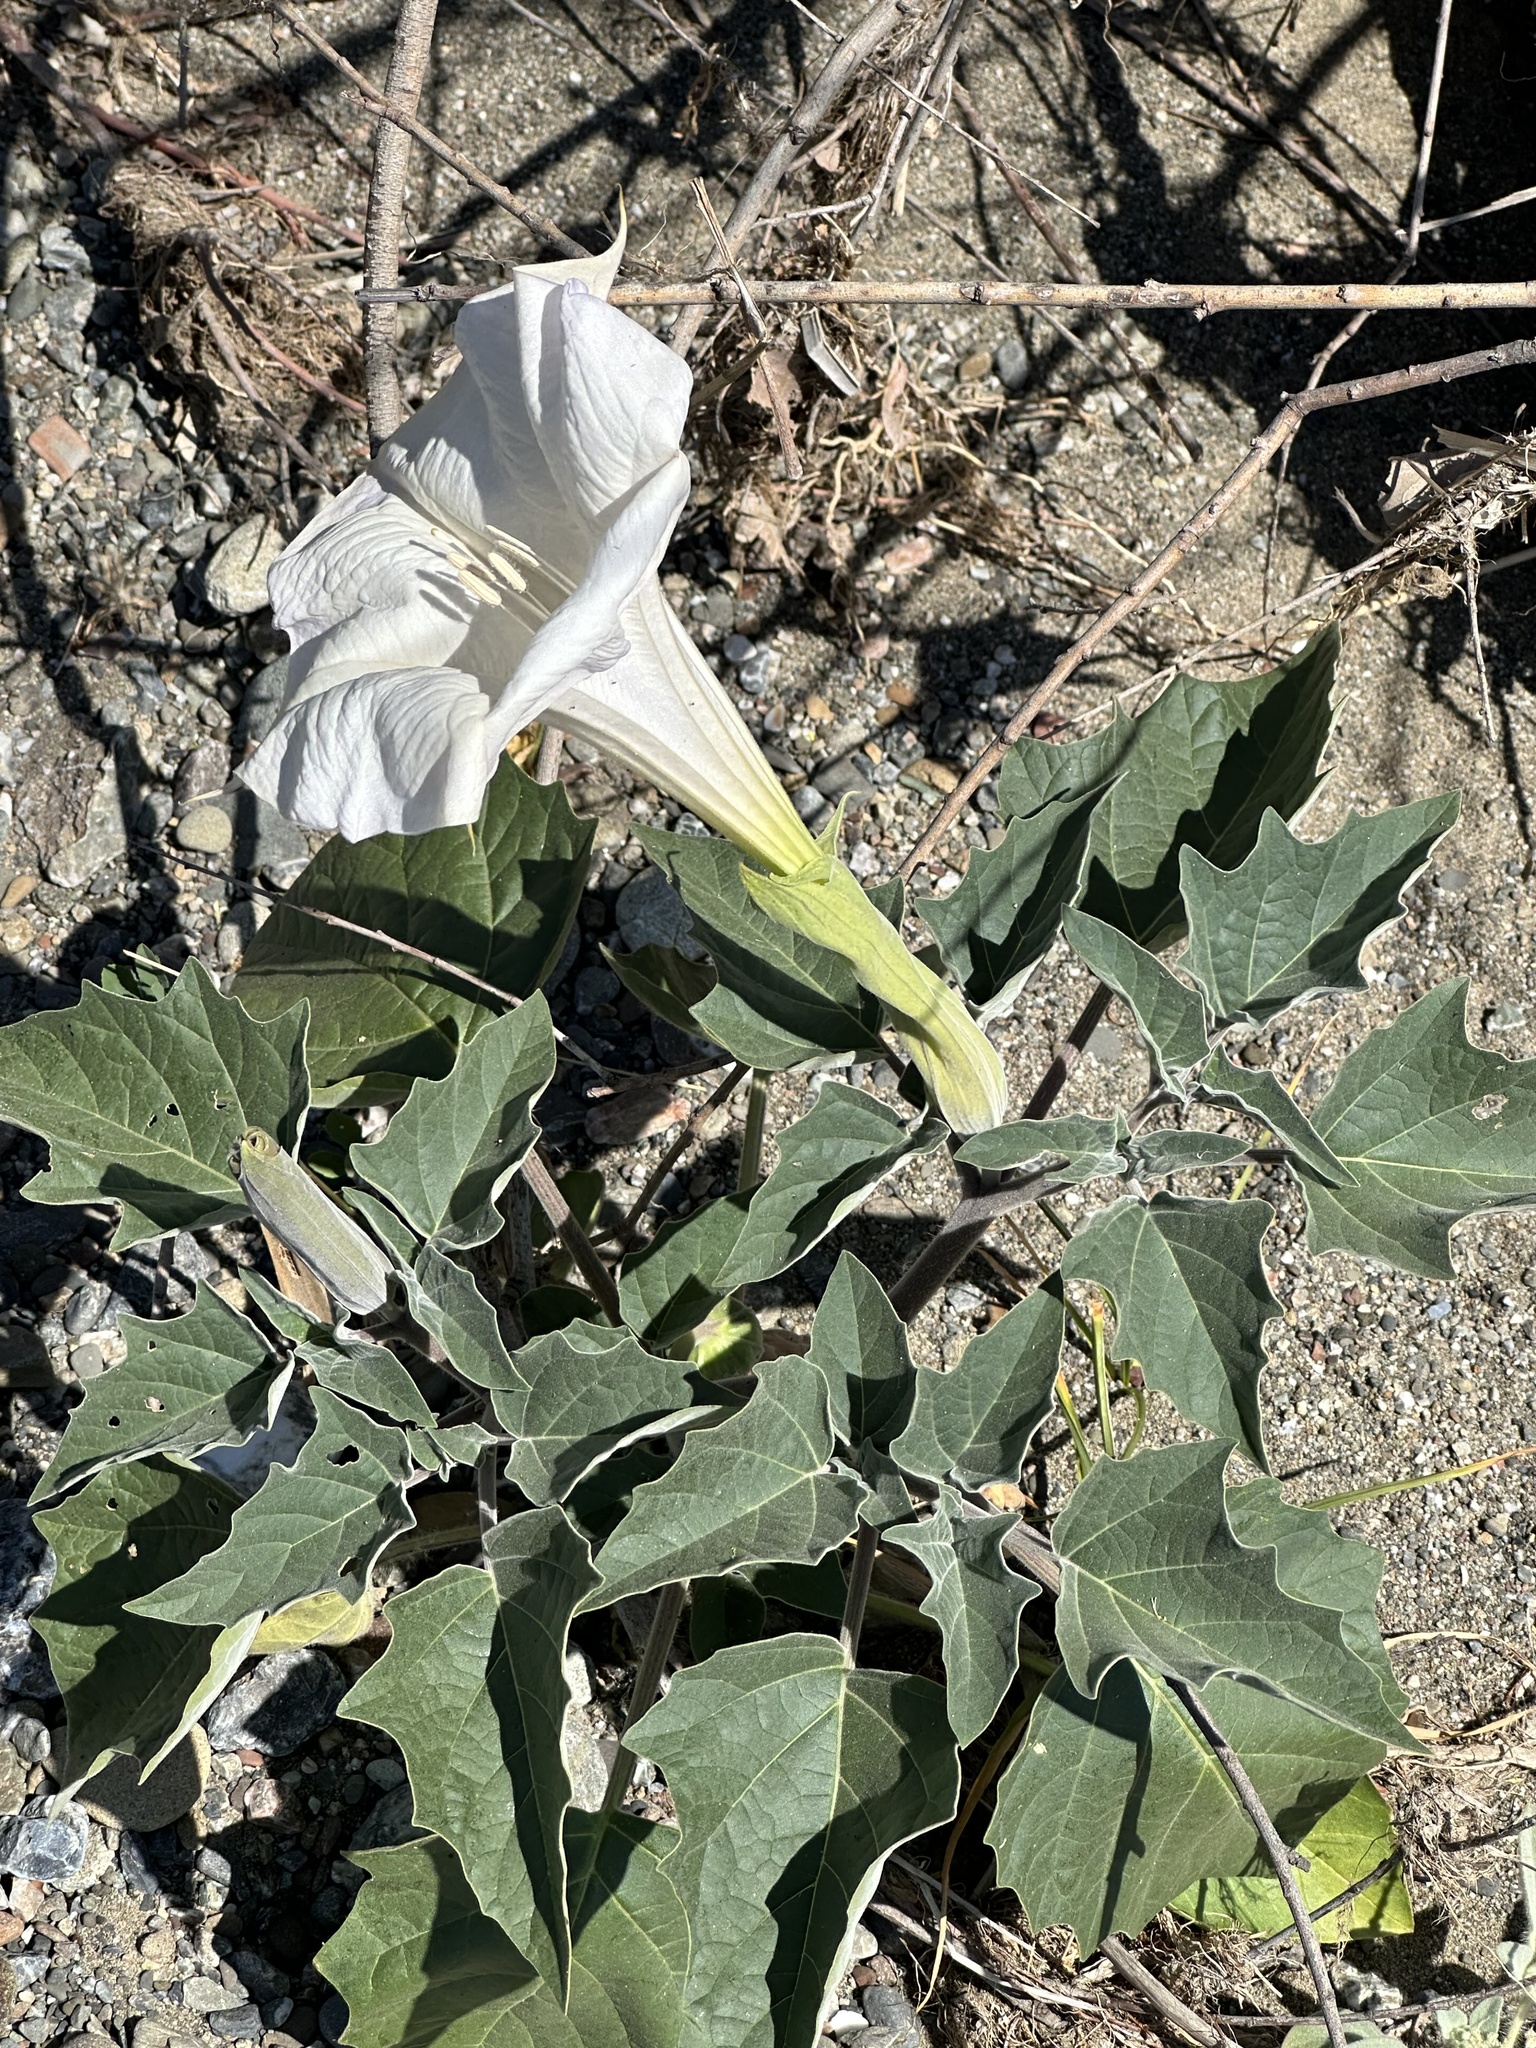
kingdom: Plantae
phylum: Tracheophyta
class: Magnoliopsida
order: Solanales
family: Solanaceae
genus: Datura
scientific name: Datura wrightii
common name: Sacred thorn-apple
